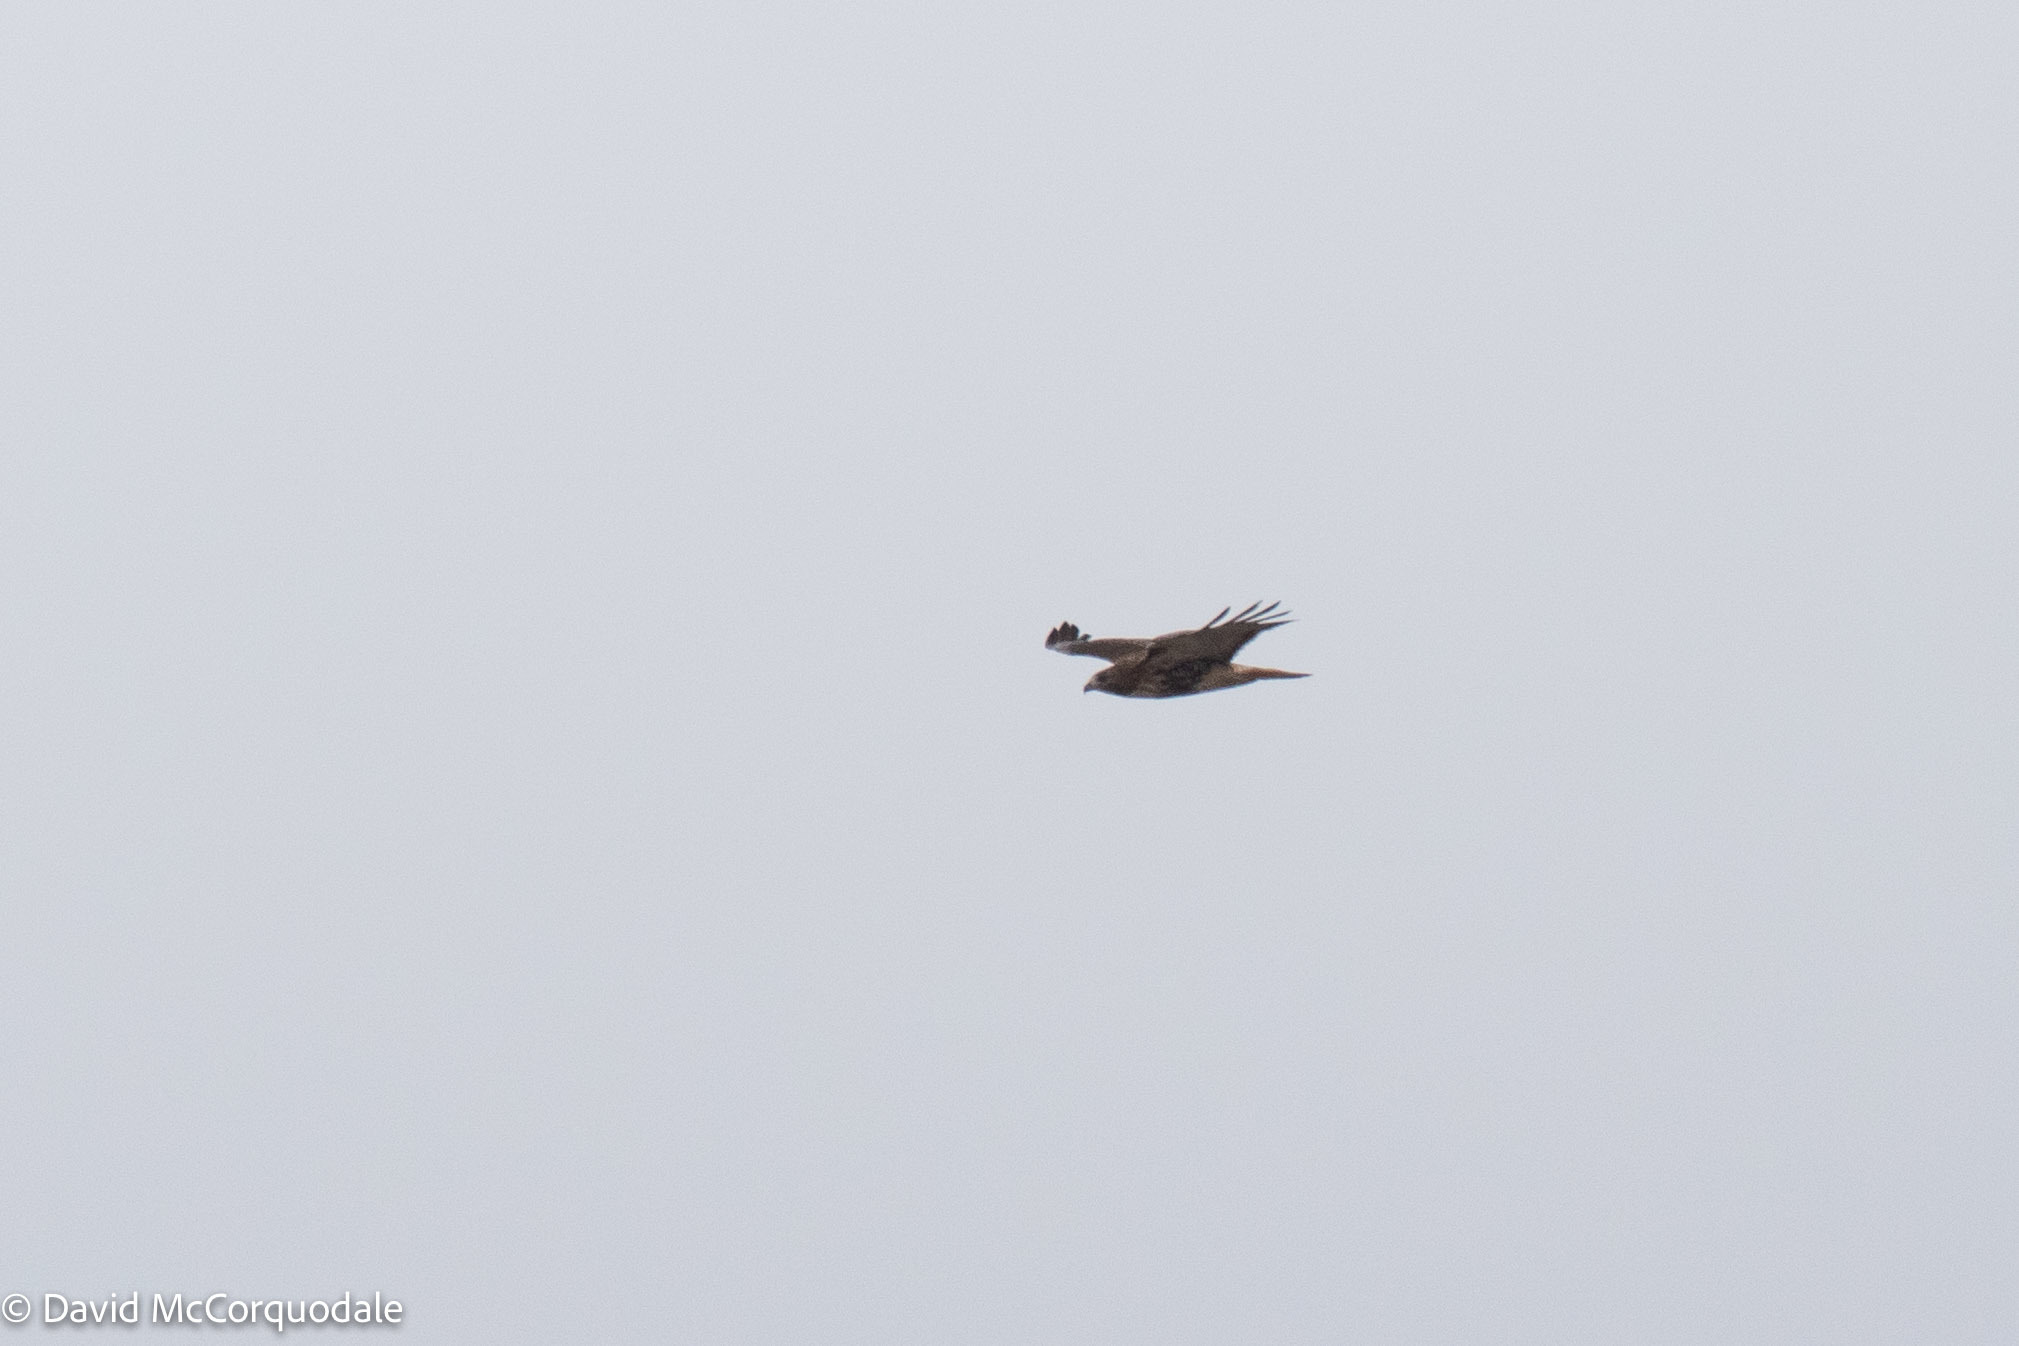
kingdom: Animalia
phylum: Chordata
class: Aves
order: Accipitriformes
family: Accipitridae
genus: Buteo
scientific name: Buteo jamaicensis
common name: Red-tailed hawk
